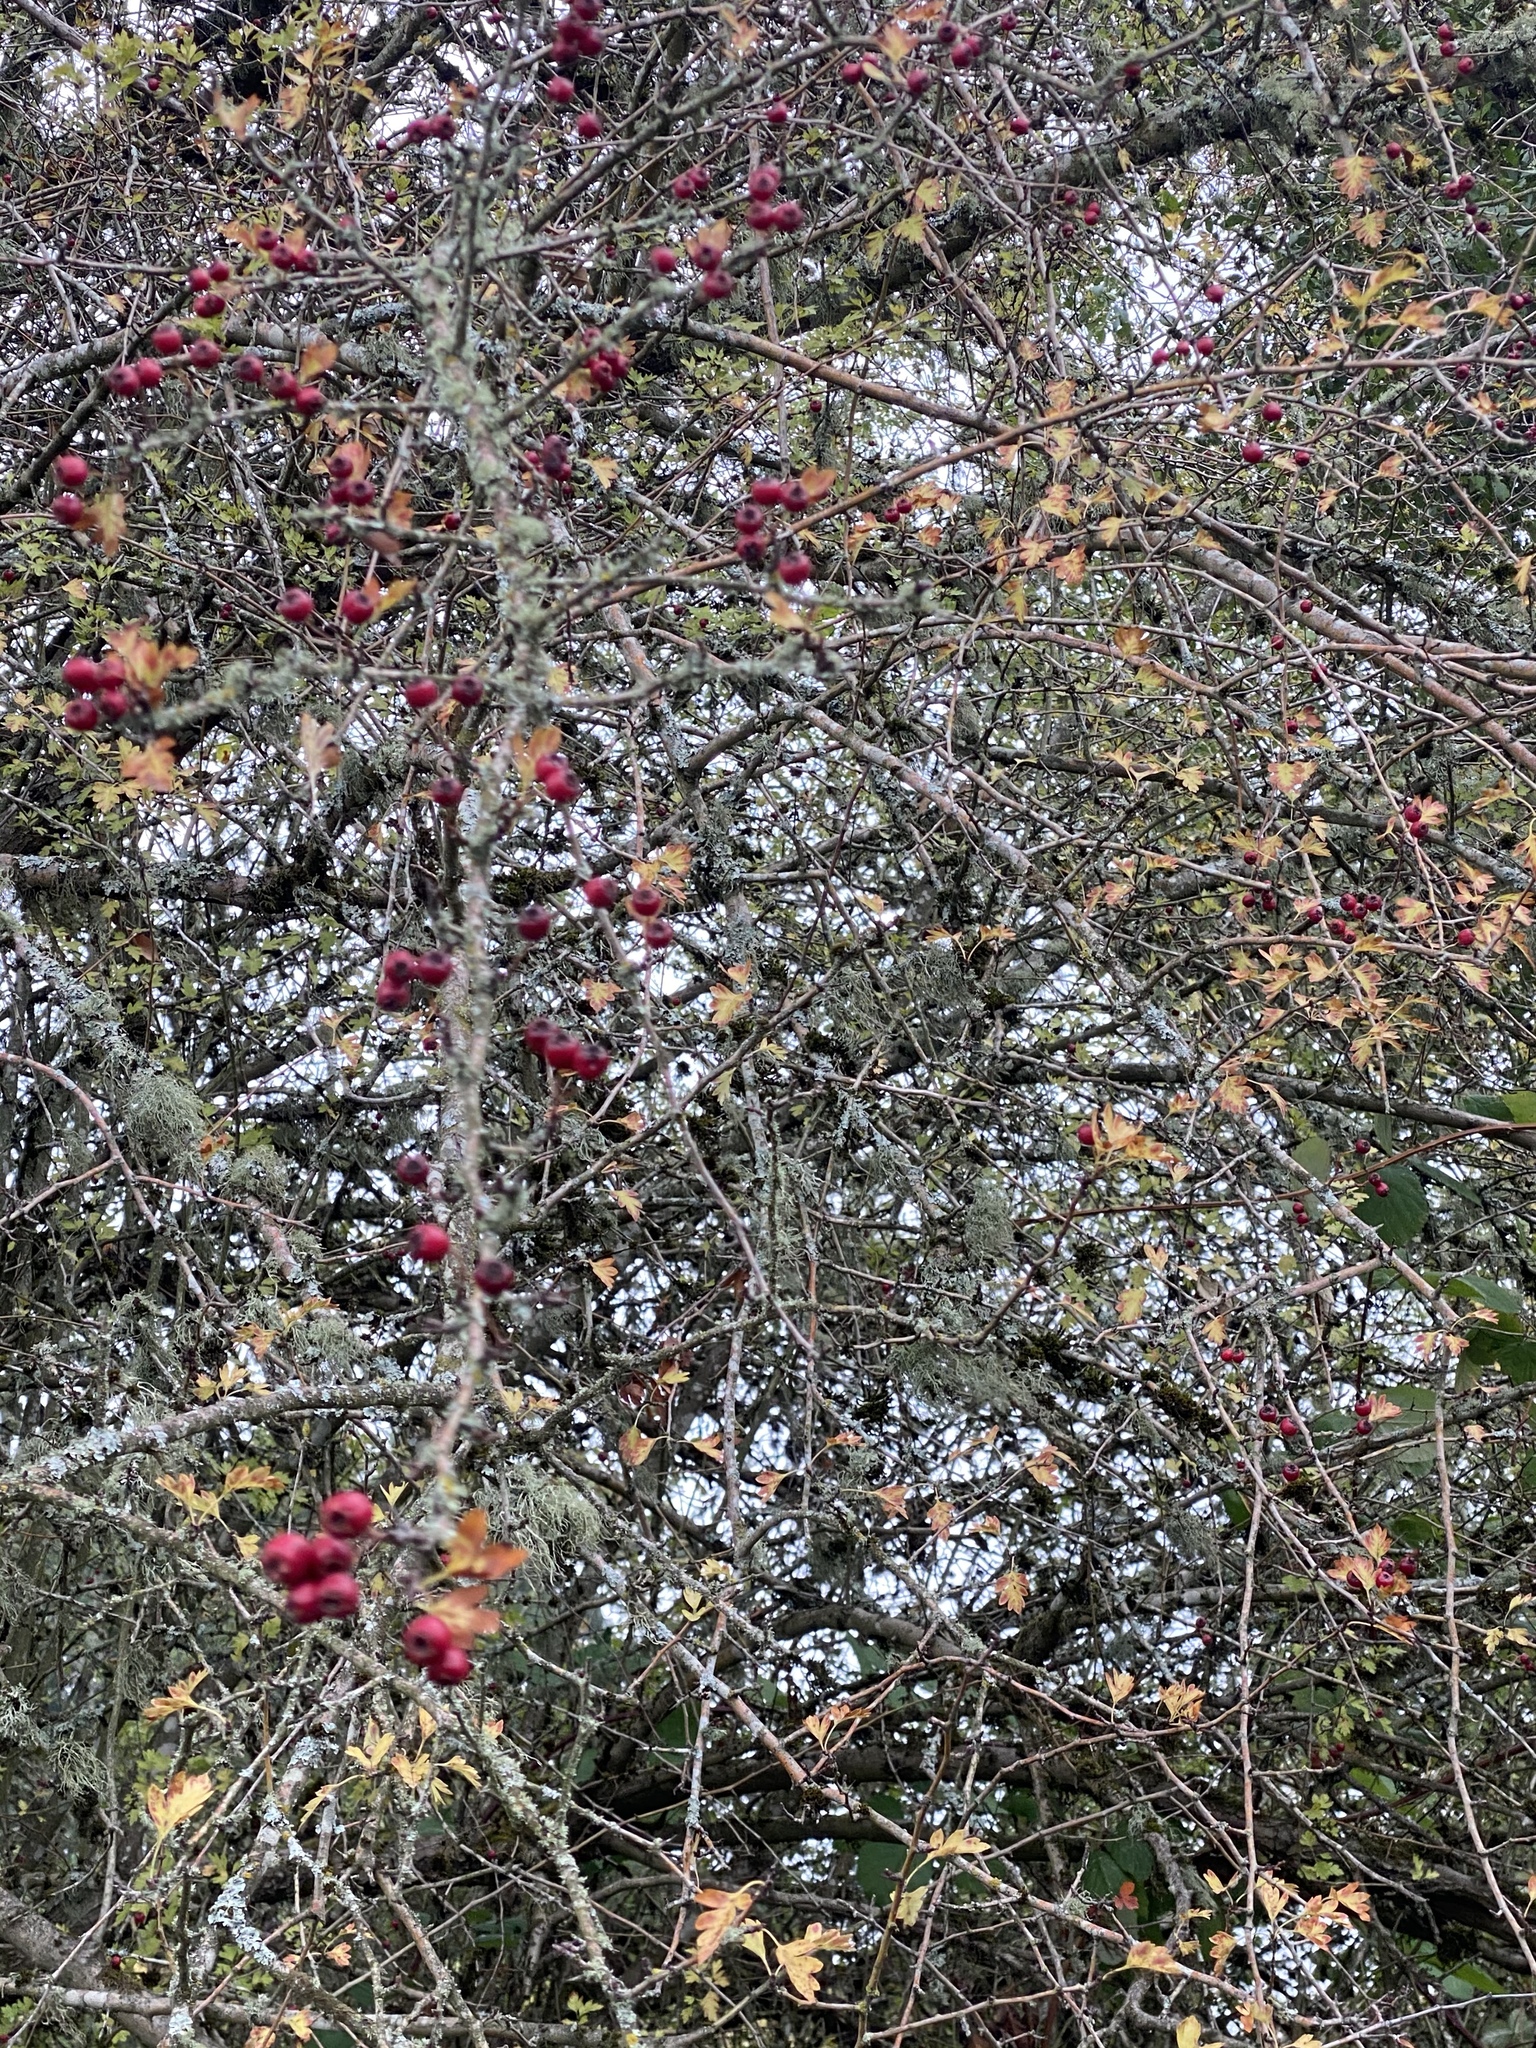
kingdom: Plantae
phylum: Tracheophyta
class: Magnoliopsida
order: Rosales
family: Rosaceae
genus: Crataegus
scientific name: Crataegus monogyna
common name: Hawthorn
